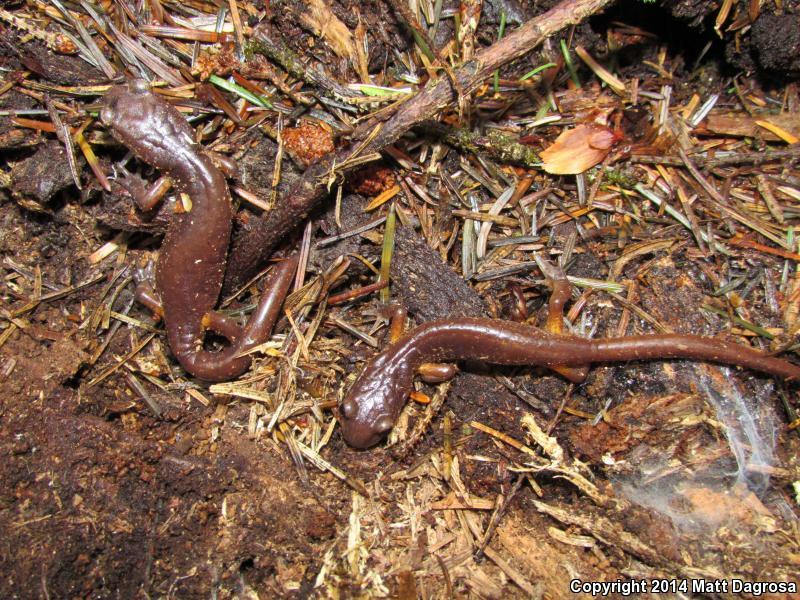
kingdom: Animalia
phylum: Chordata
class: Amphibia
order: Caudata
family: Plethodontidae
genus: Ensatina
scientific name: Ensatina eschscholtzii
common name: Ensatina
